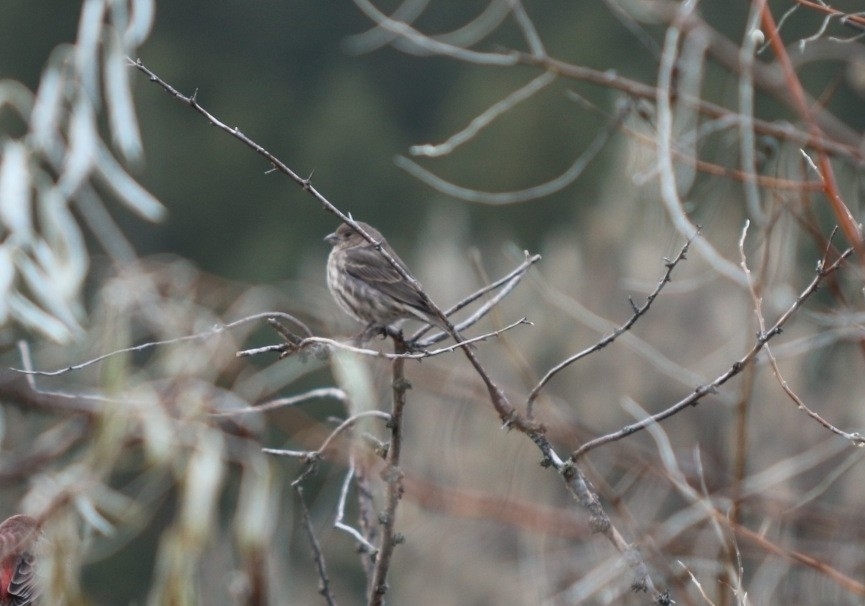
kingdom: Animalia
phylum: Chordata
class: Aves
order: Passeriformes
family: Fringillidae
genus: Haemorhous
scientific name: Haemorhous mexicanus
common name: House finch
